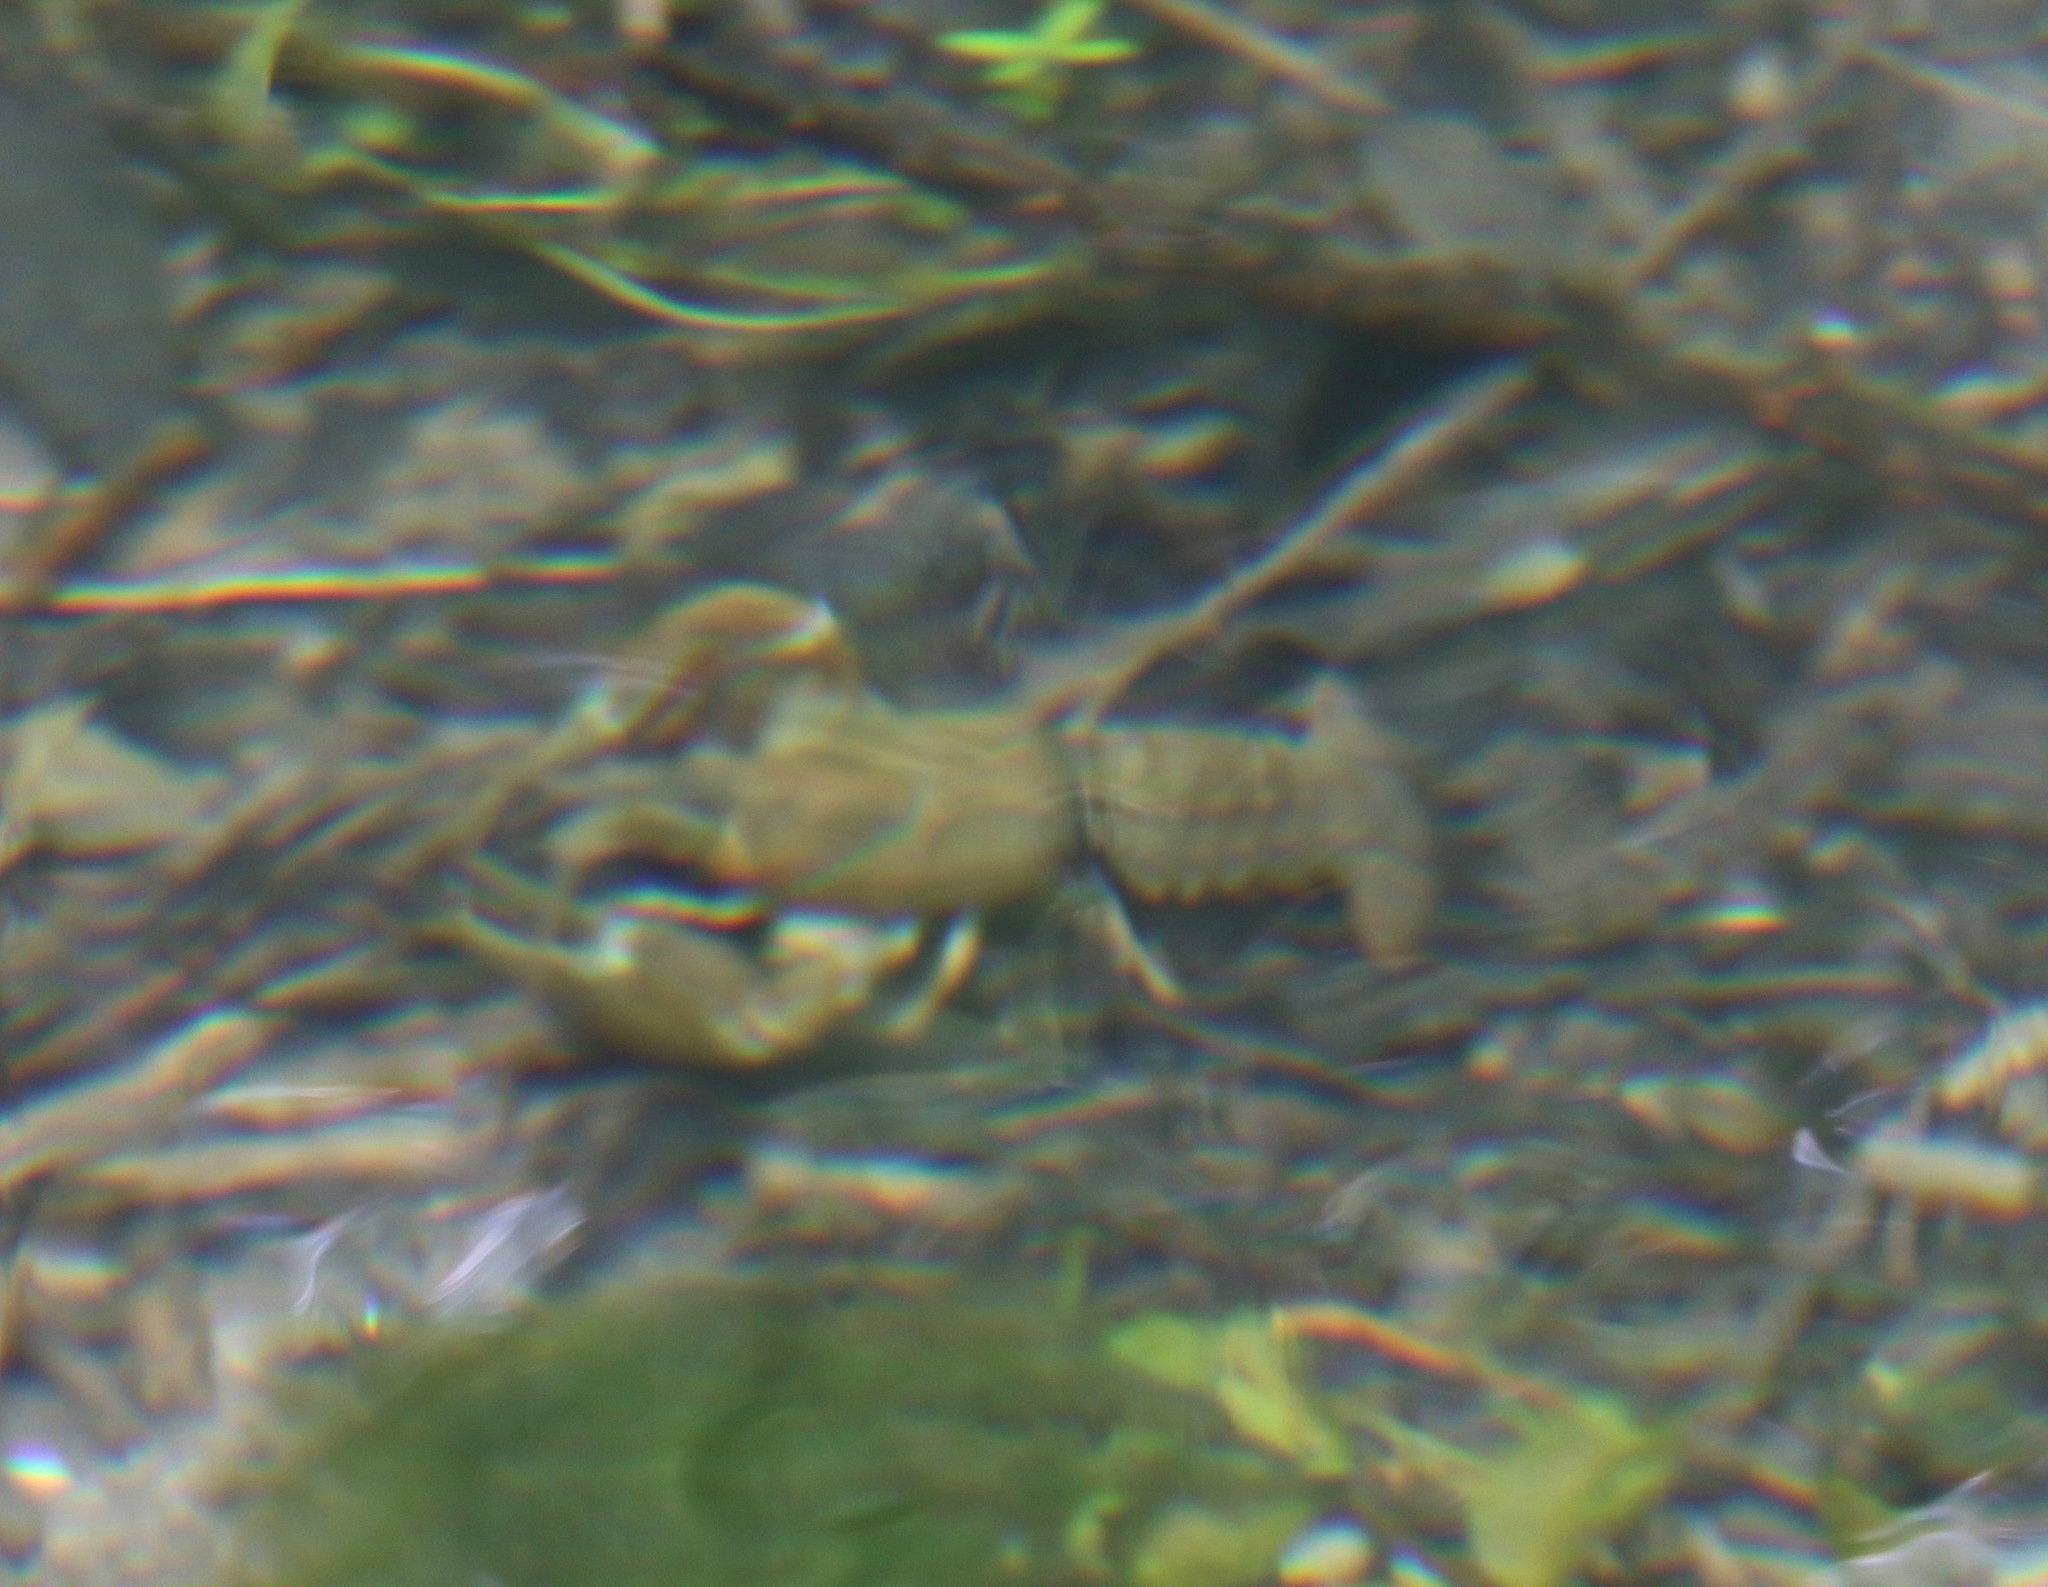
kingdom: Animalia
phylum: Arthropoda
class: Malacostraca
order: Decapoda
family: Astacidae
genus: Pacifastacus
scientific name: Pacifastacus leniusculus
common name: Signal crayfish
